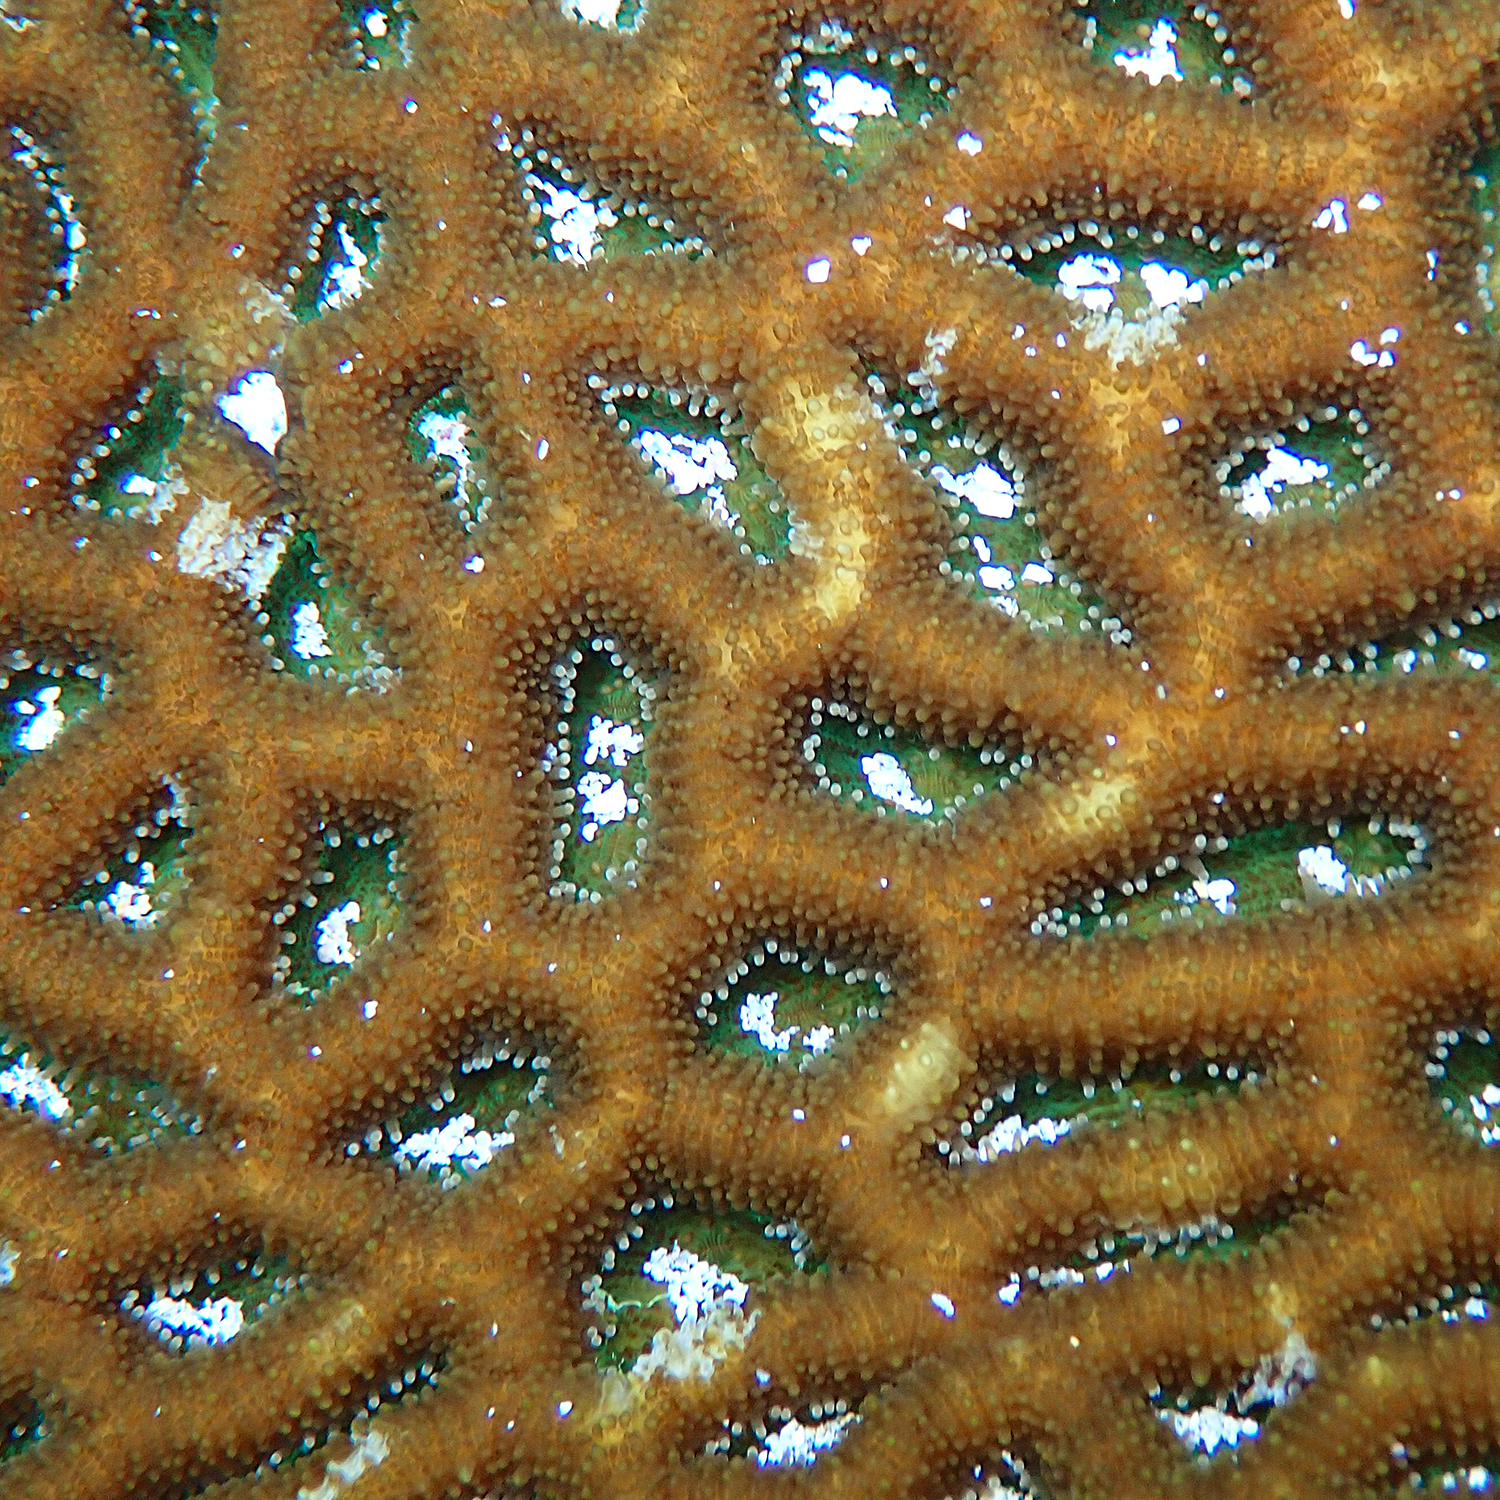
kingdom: Animalia
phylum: Cnidaria
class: Anthozoa
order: Scleractinia
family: Lobophylliidae
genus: Homophyllia
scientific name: Homophyllia bowerbanki
